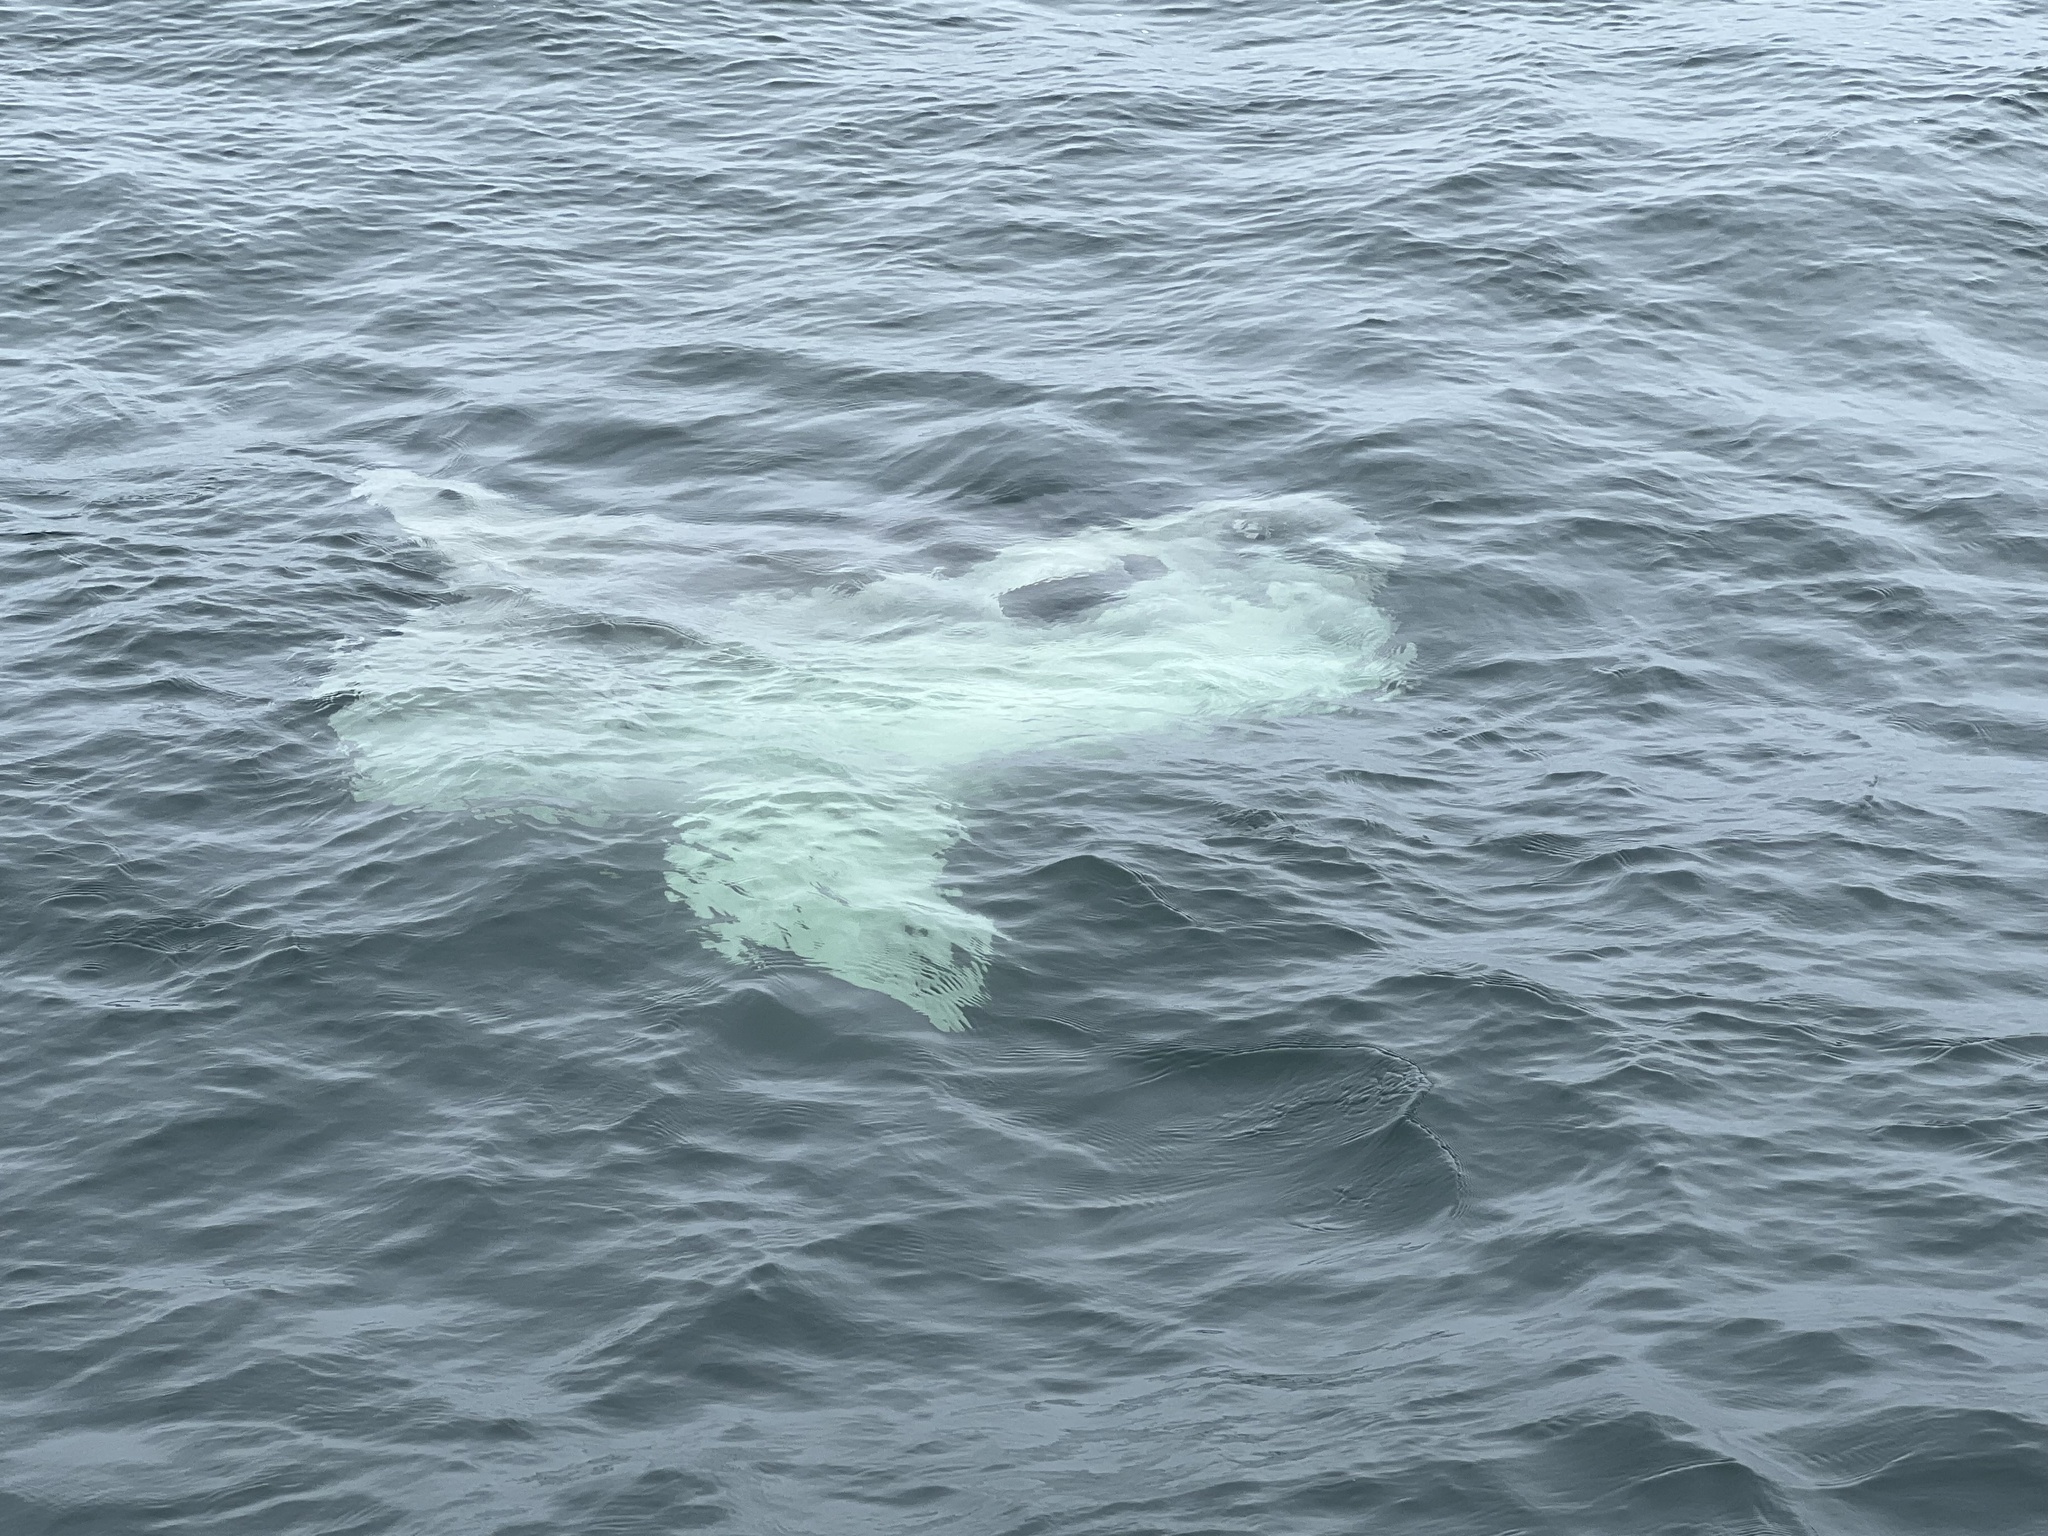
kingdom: Animalia
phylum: Chordata
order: Tetraodontiformes
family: Molidae
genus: Mola
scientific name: Mola mola
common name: Ocean sunfish
